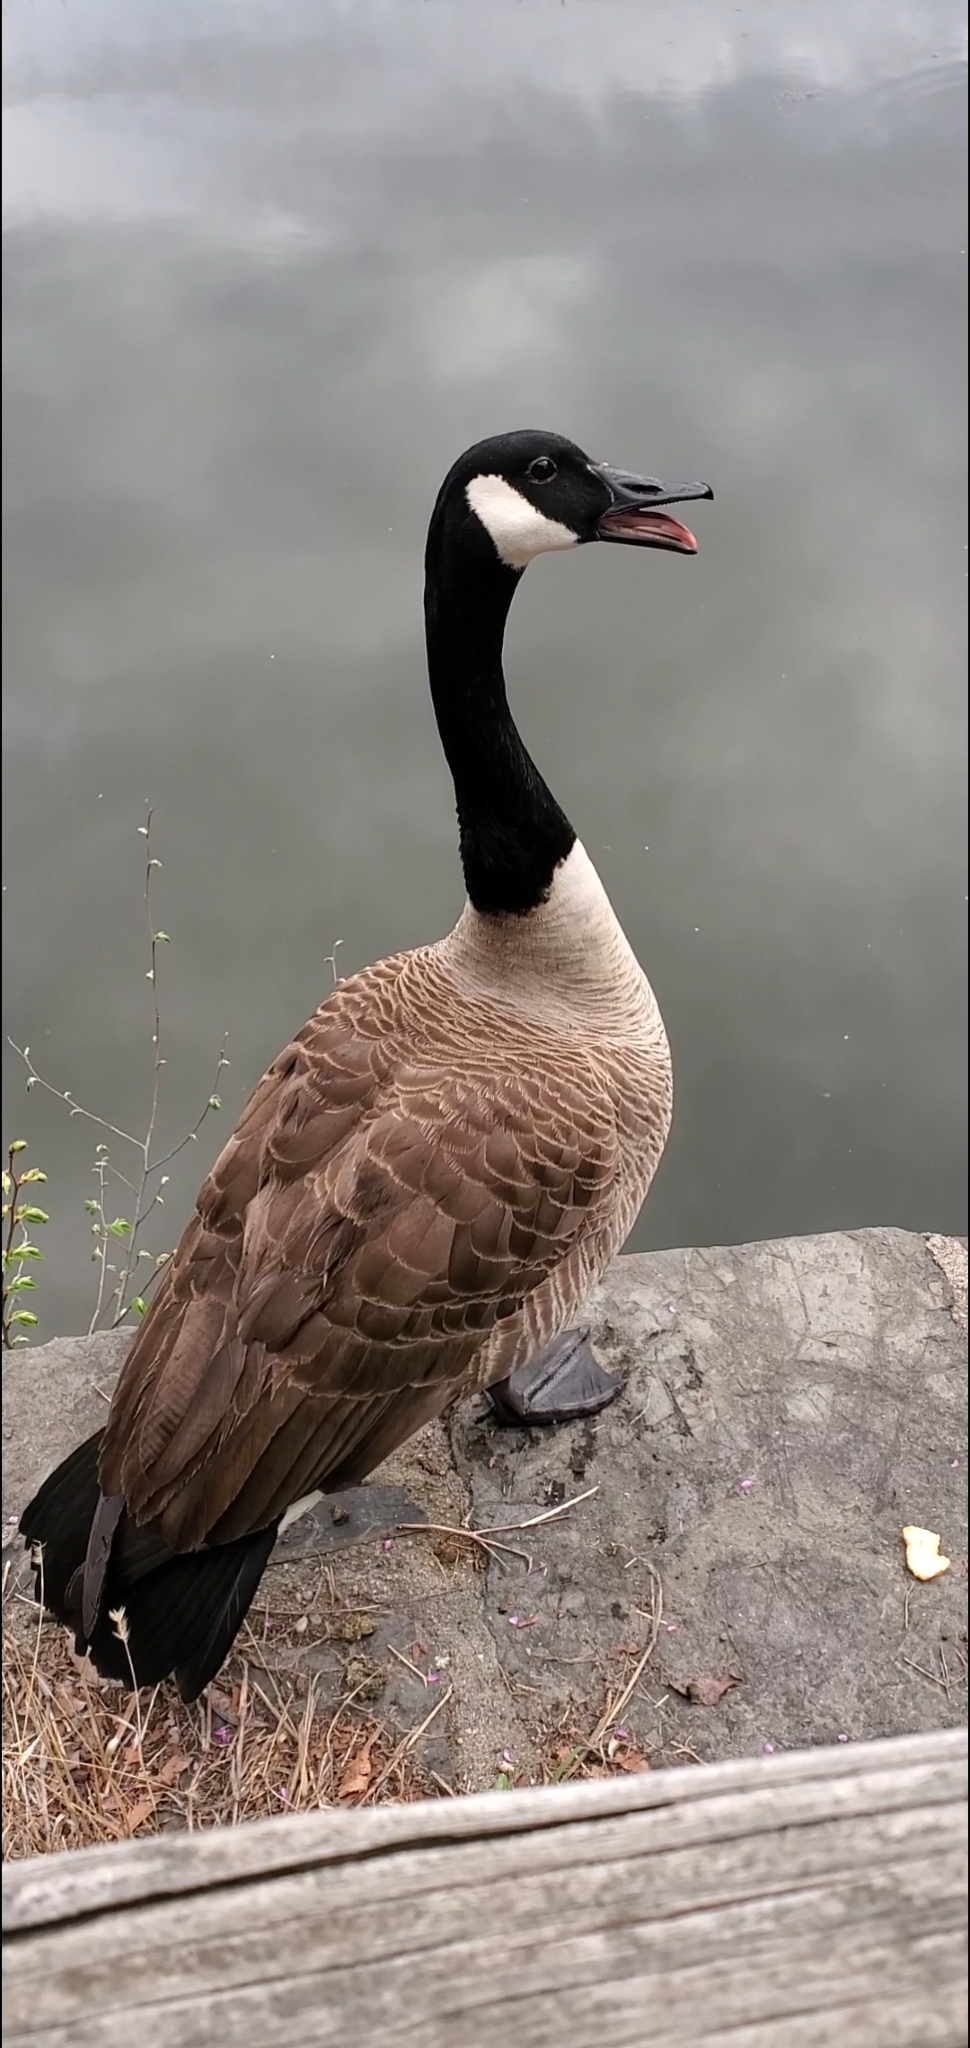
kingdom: Animalia
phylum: Chordata
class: Aves
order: Anseriformes
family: Anatidae
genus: Branta
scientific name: Branta canadensis
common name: Canada goose
